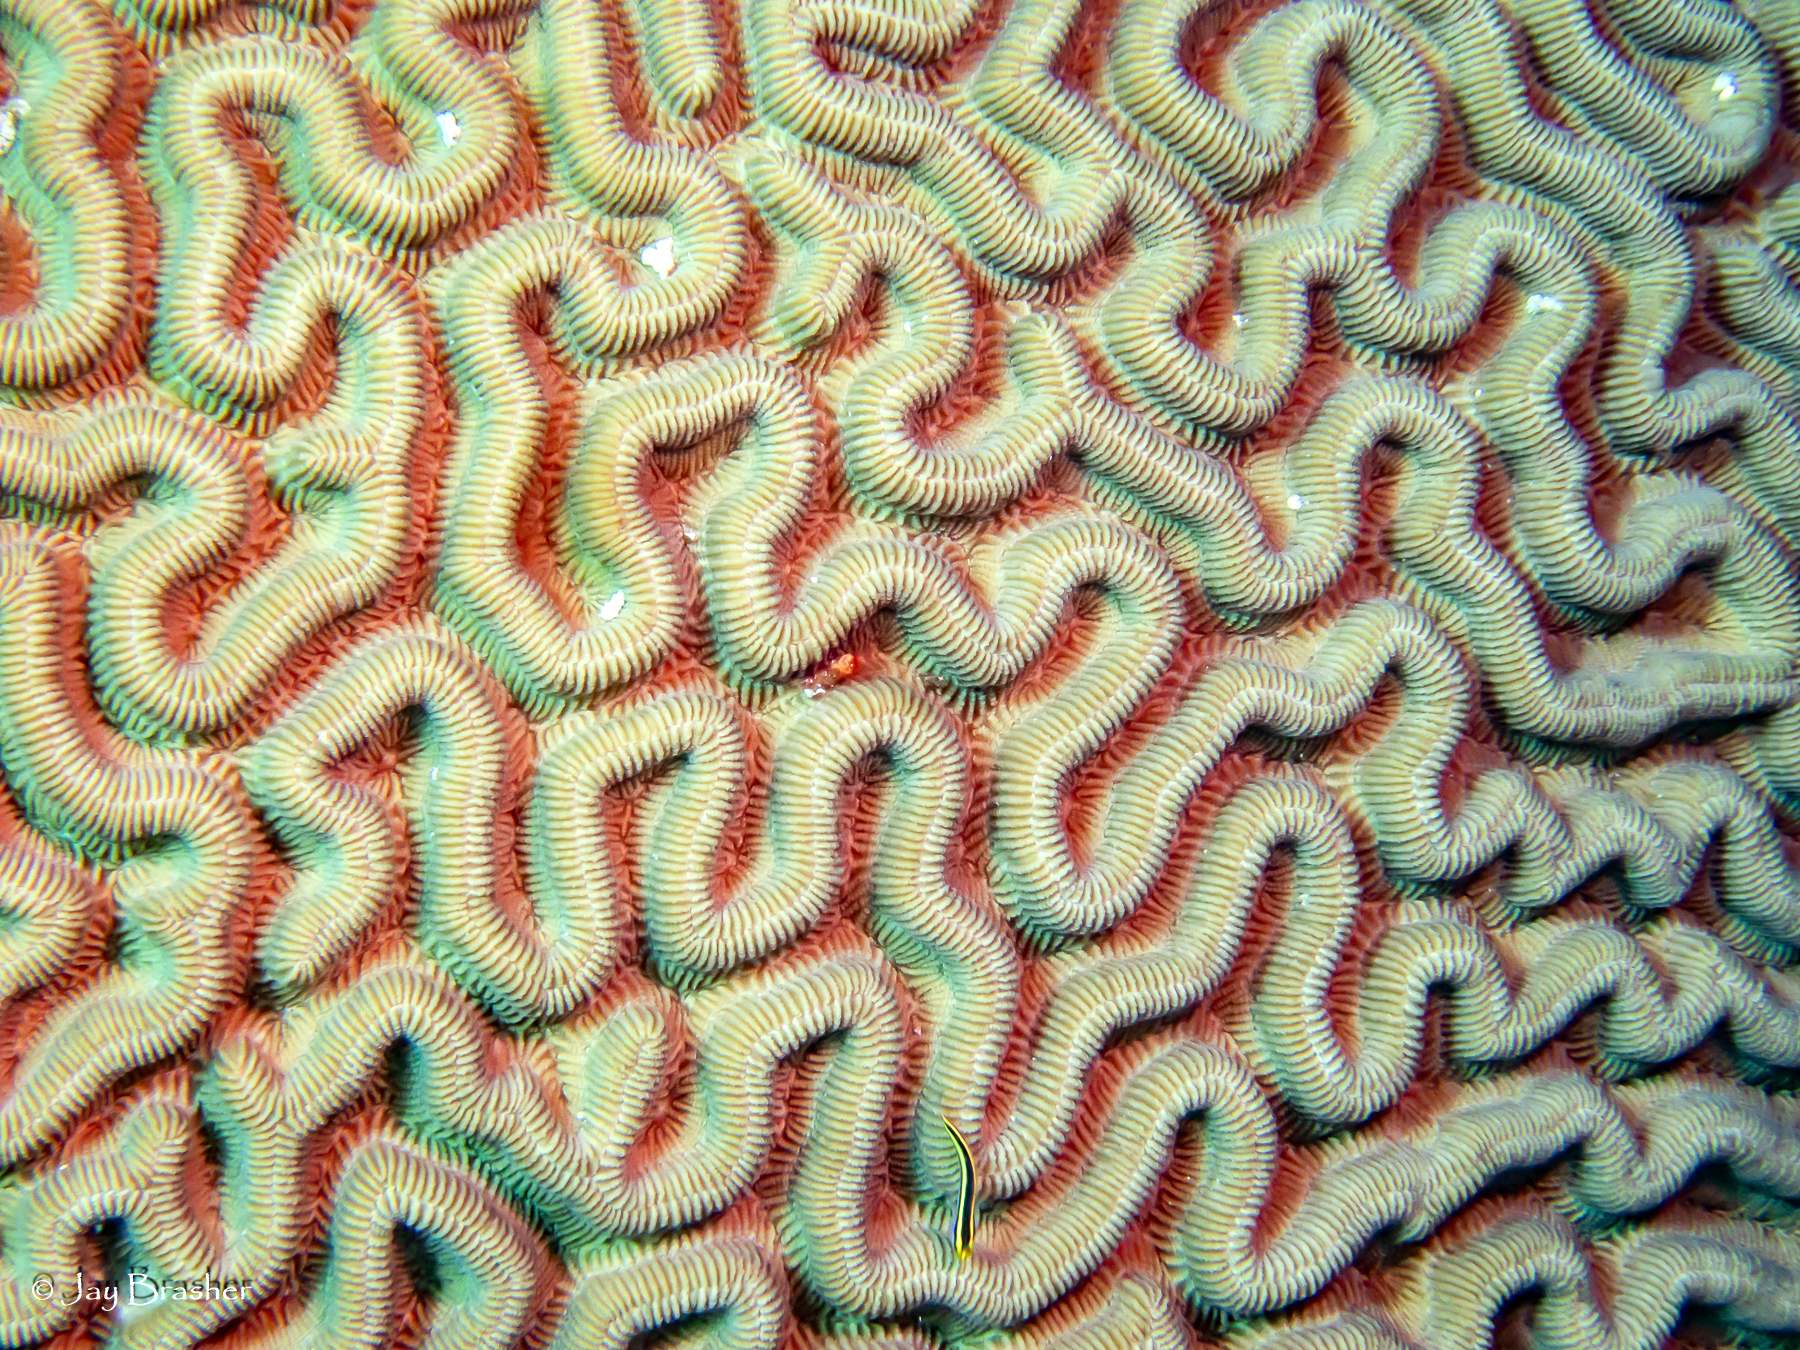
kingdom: Animalia
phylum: Cnidaria
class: Anthozoa
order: Scleractinia
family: Faviidae
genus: Colpophyllia
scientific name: Colpophyllia natans
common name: Boulder brain coral
